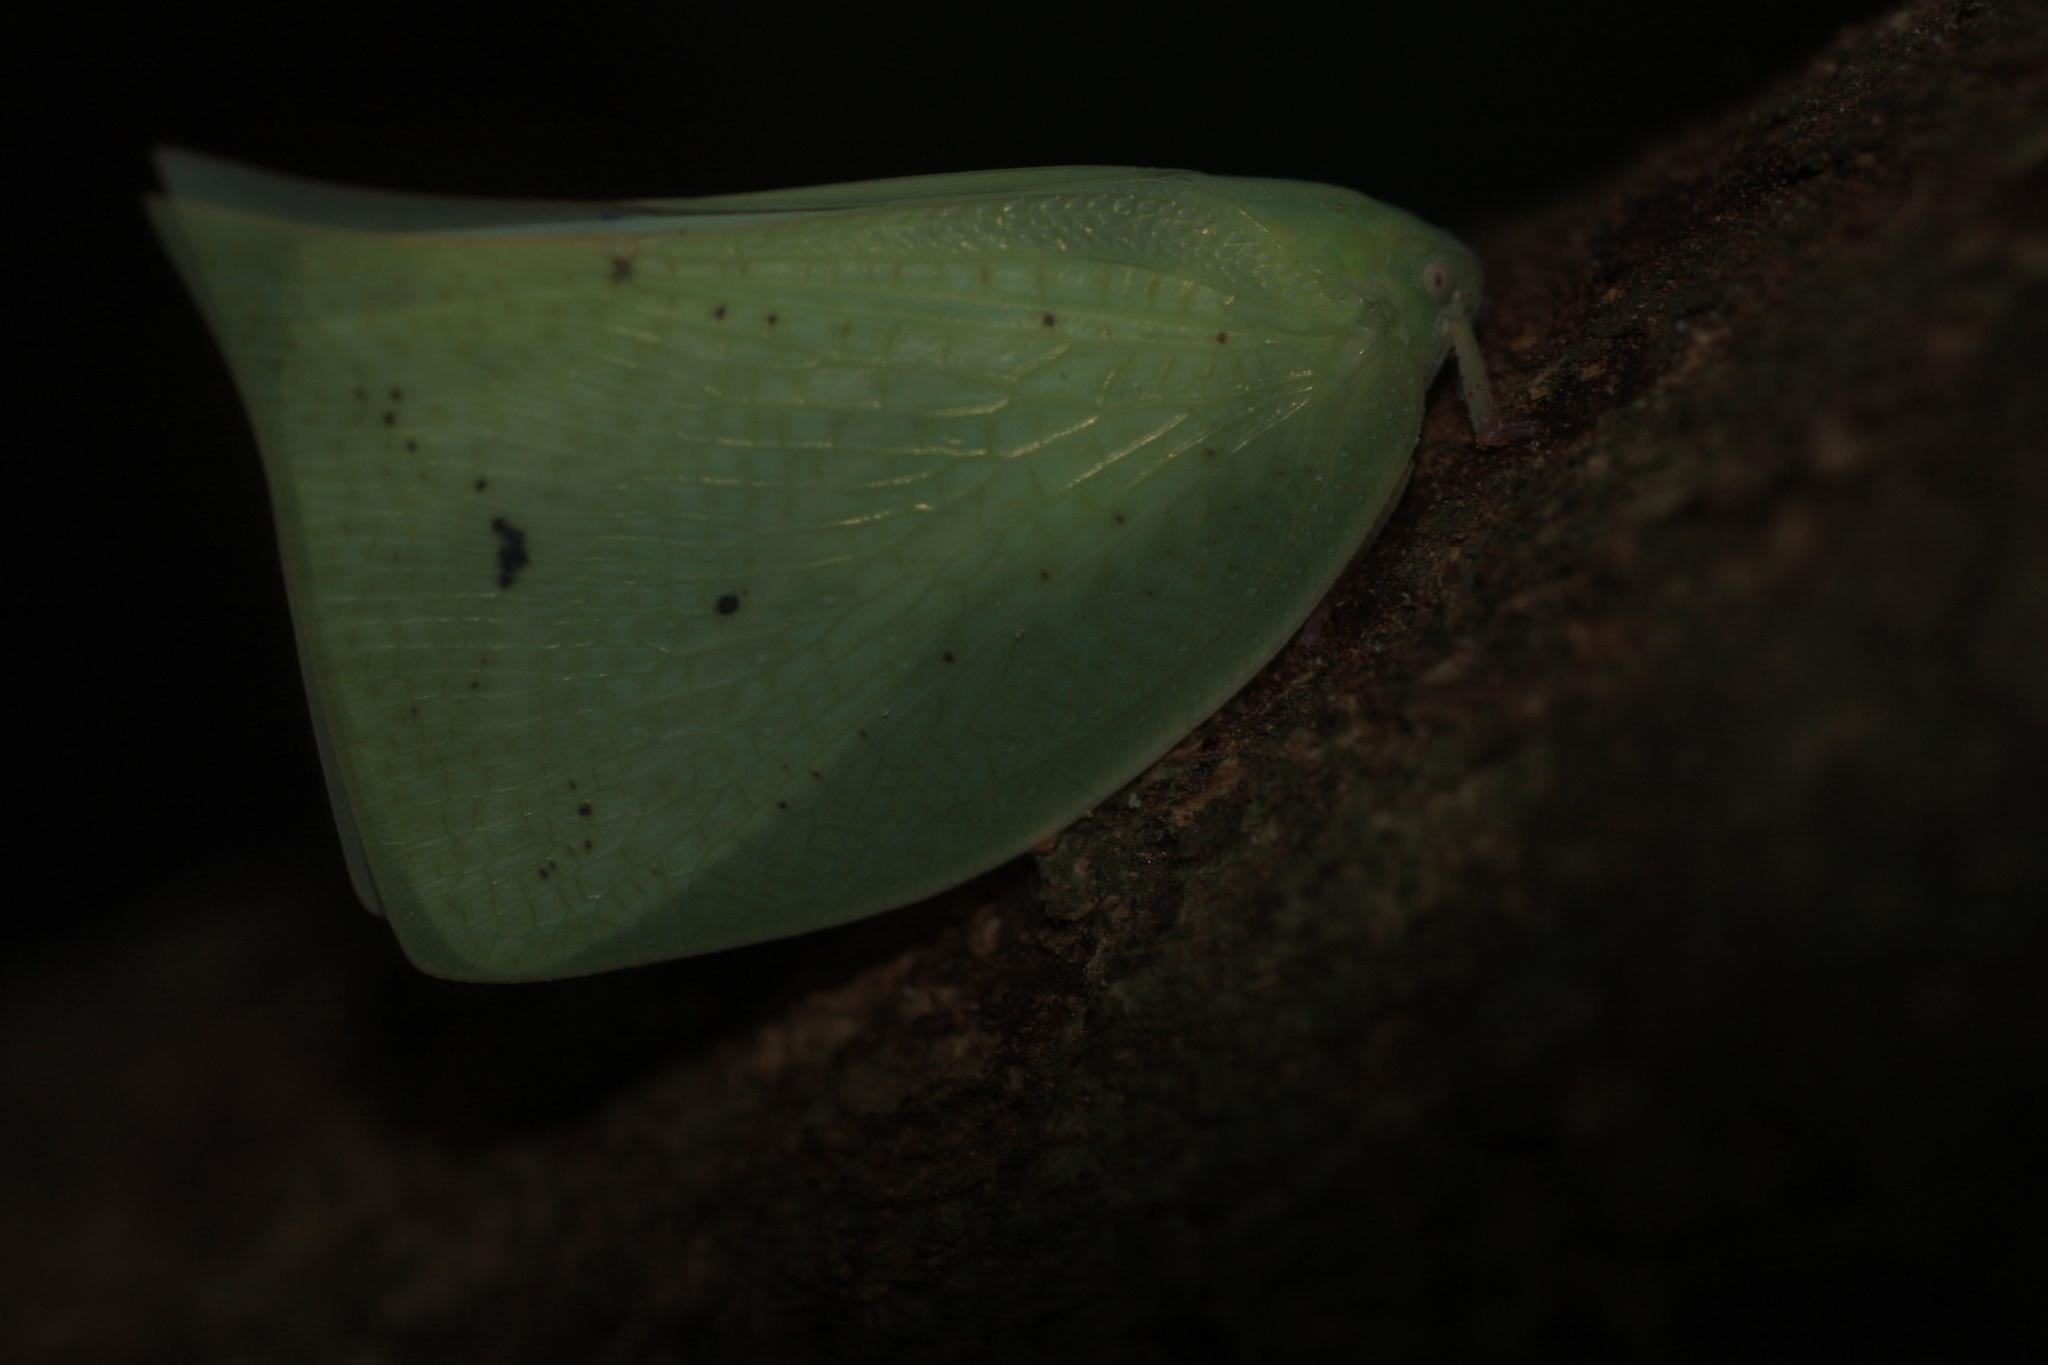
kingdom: Animalia
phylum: Arthropoda
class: Insecta
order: Hemiptera
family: Flatidae
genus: Scarpantina
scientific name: Scarpantina modesta
